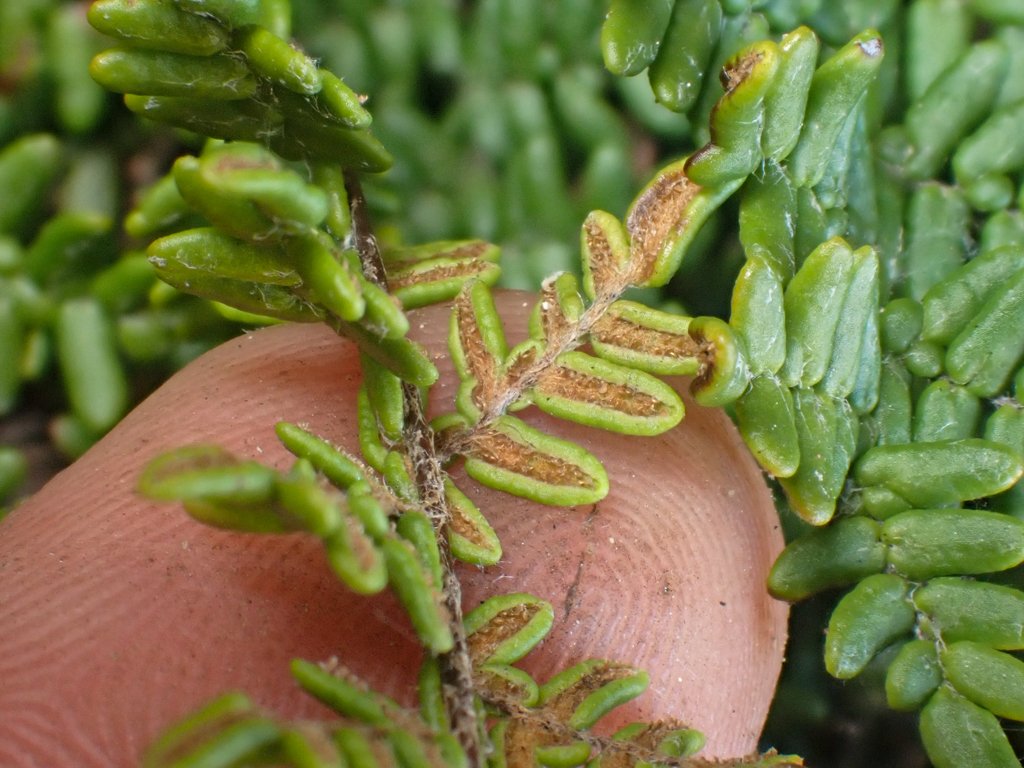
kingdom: Plantae
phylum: Tracheophyta
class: Polypodiopsida
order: Polypodiales
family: Pteridaceae
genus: Myriopteris
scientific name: Myriopteris gracillima
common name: Lace fern
